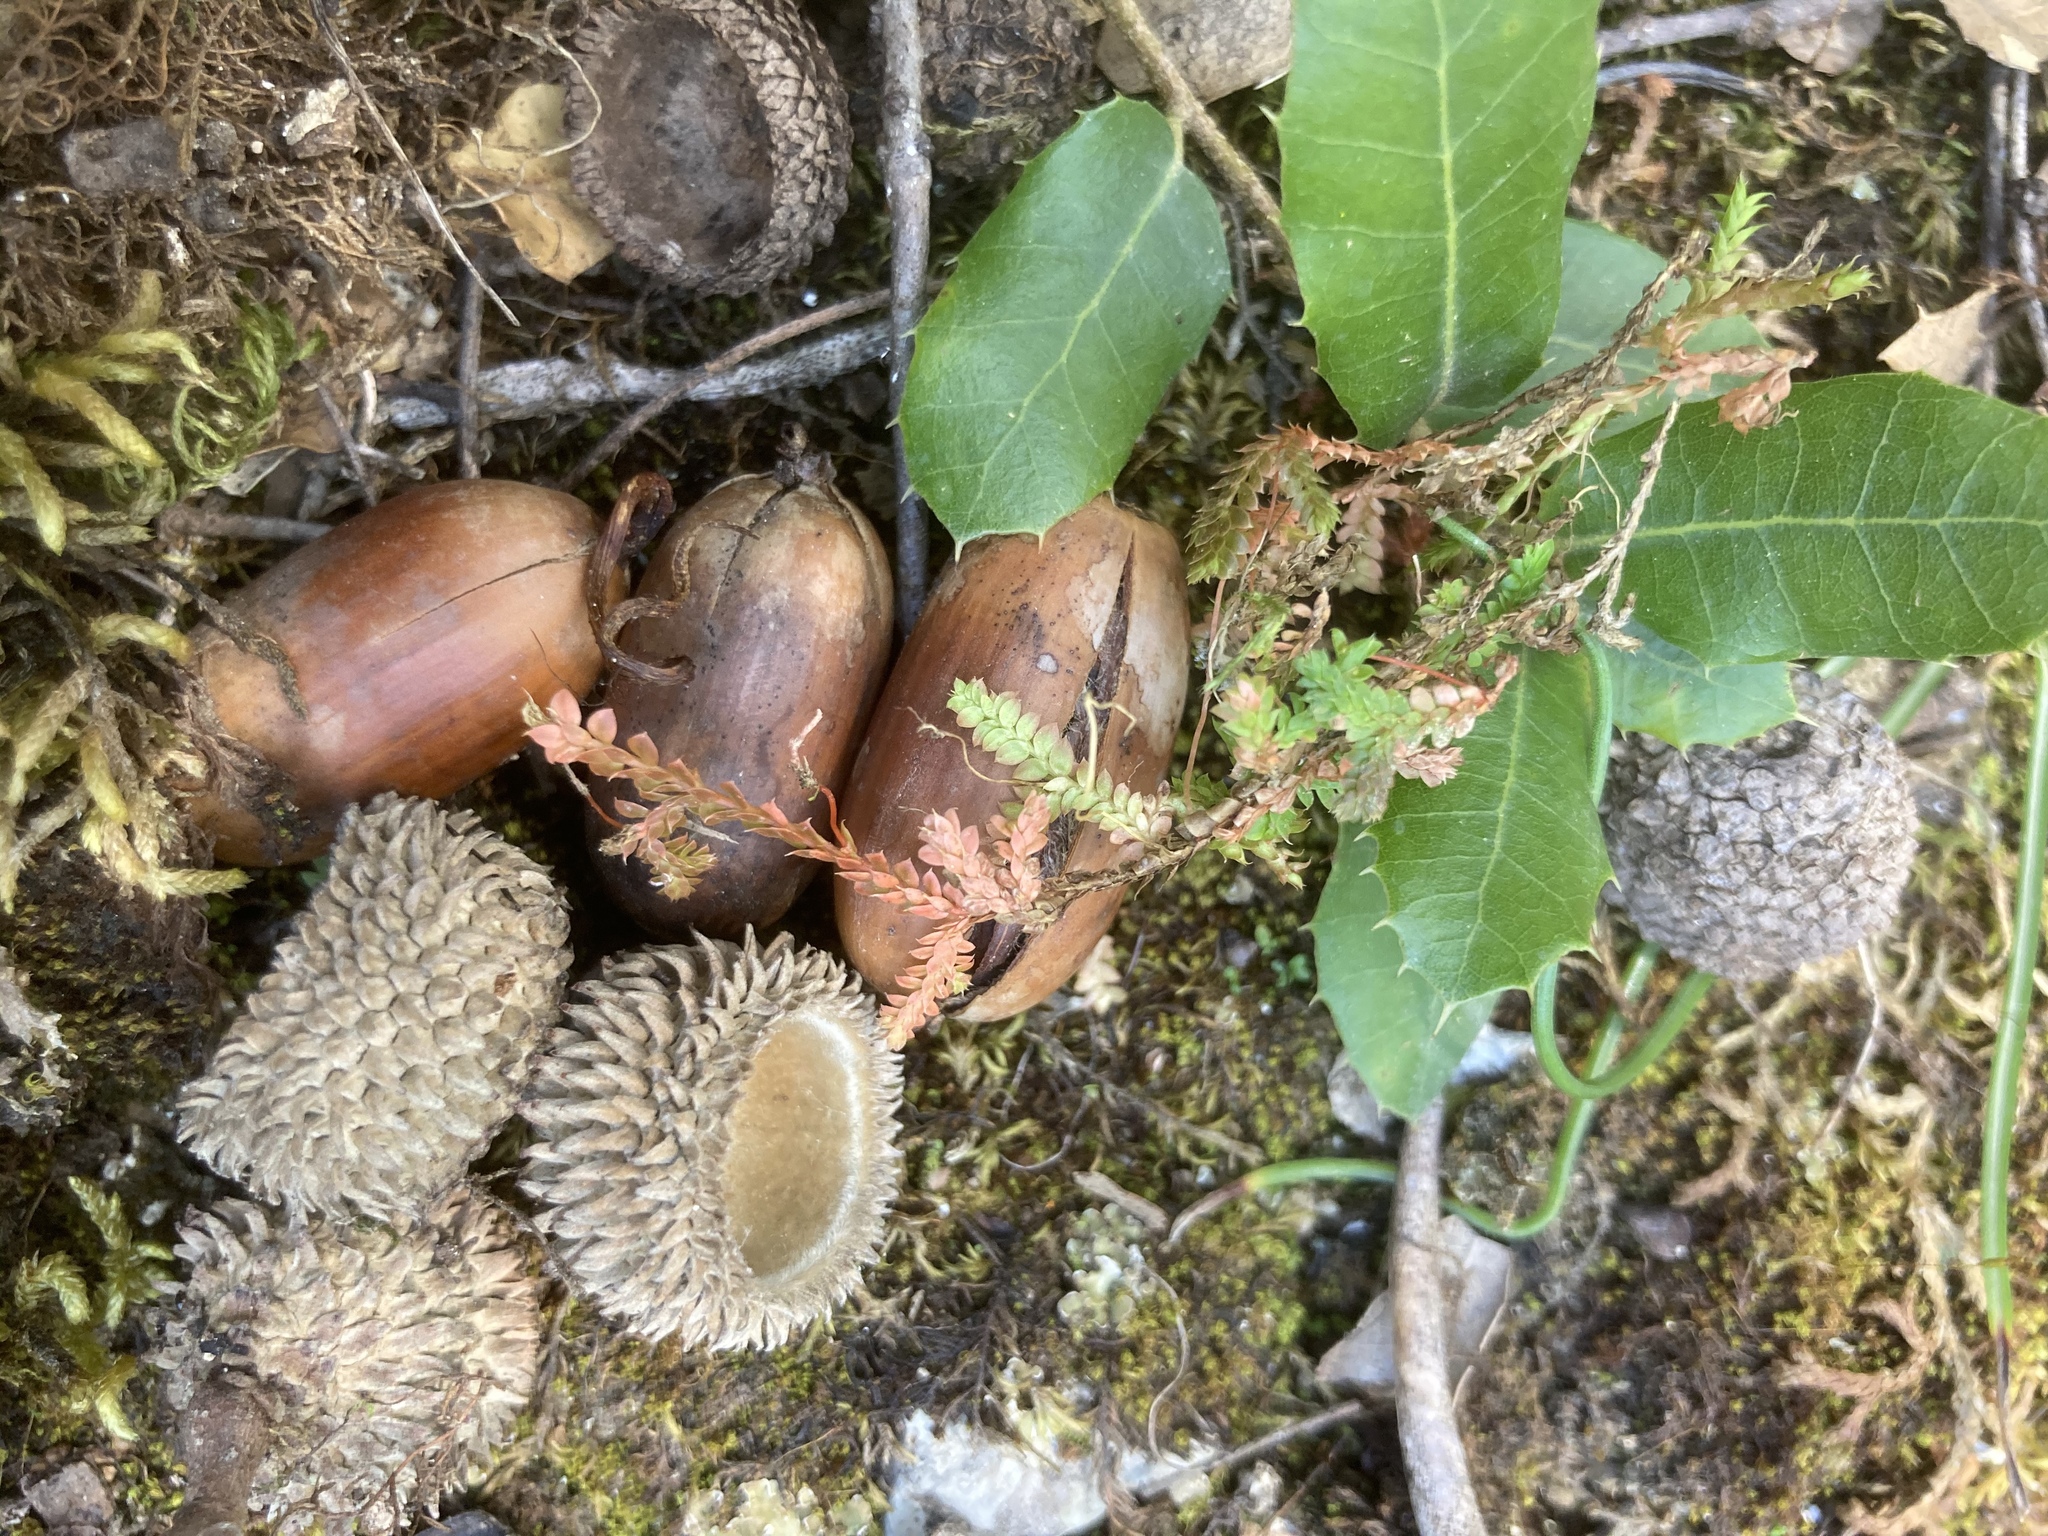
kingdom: Plantae
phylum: Tracheophyta
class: Lycopodiopsida
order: Selaginellales
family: Selaginellaceae
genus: Selaginella
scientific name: Selaginella denticulata
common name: Toothed-leaved clubmoss
